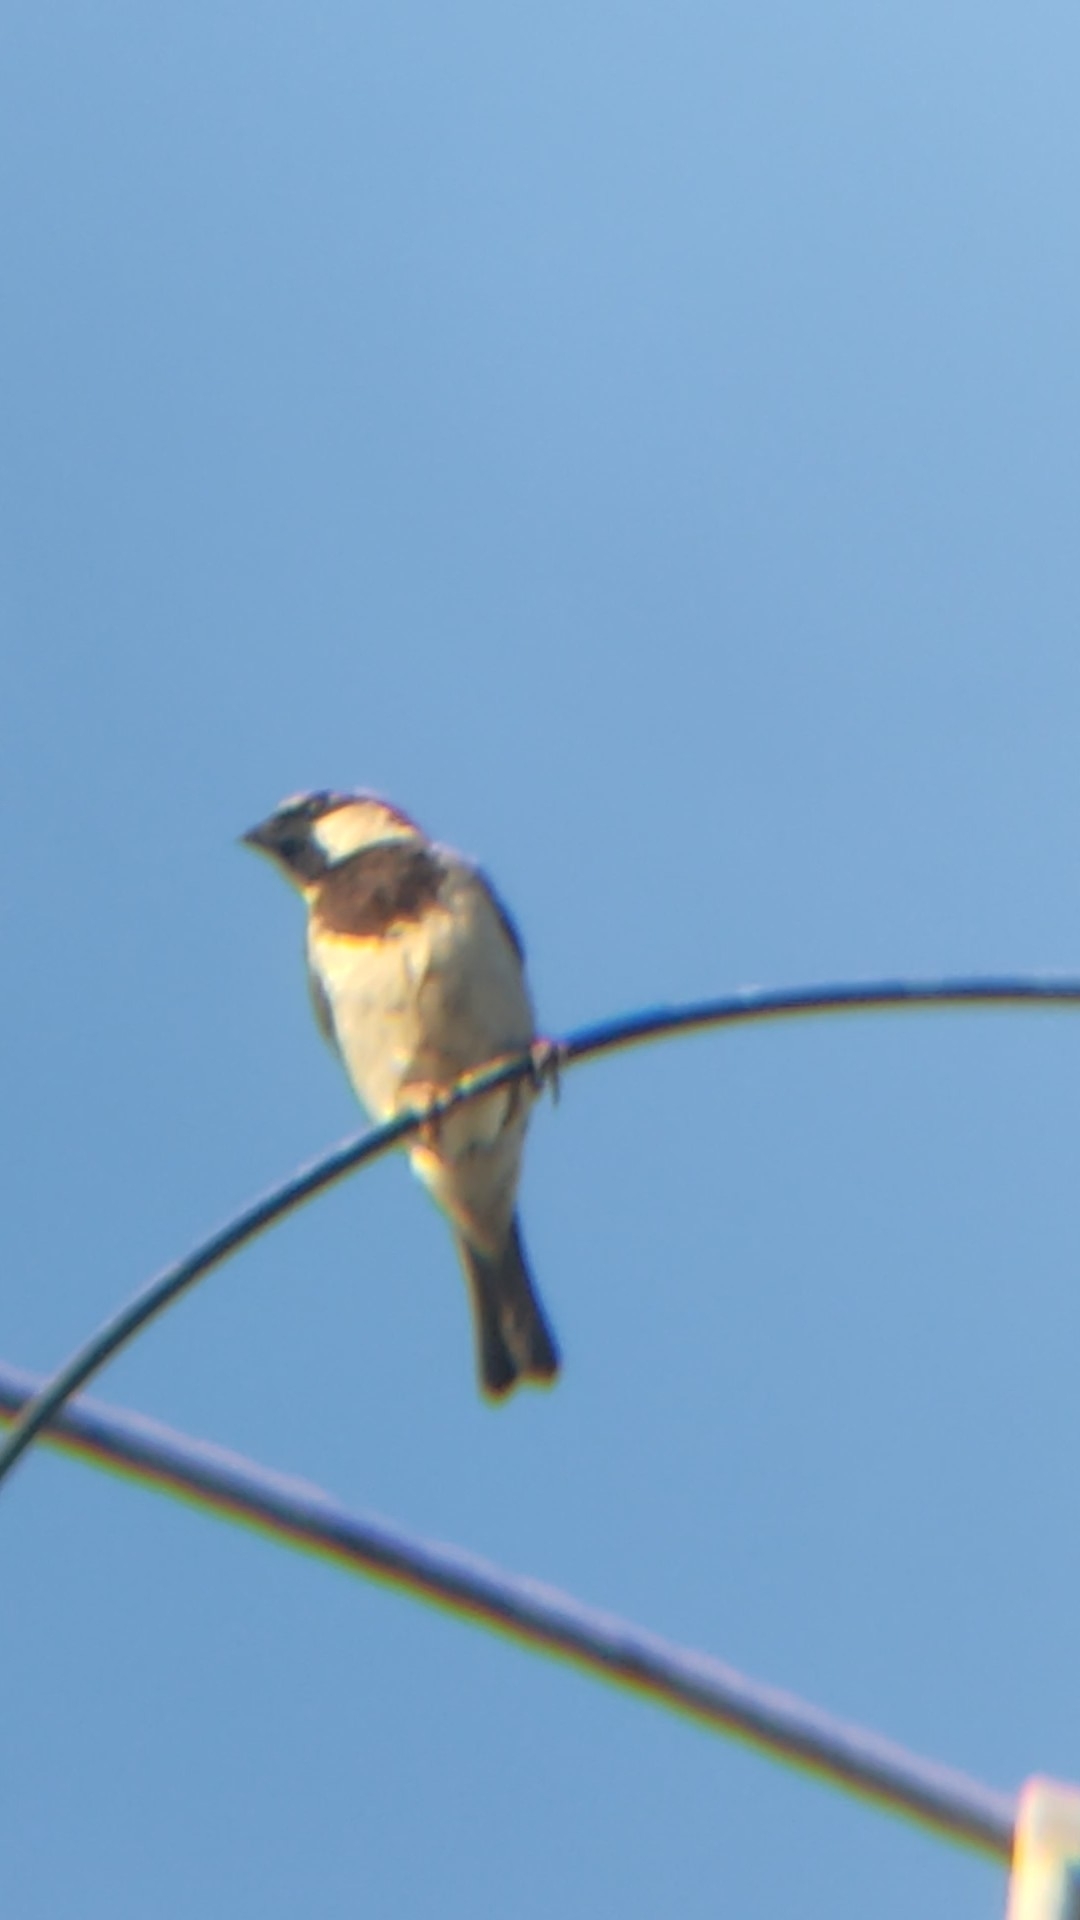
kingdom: Animalia
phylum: Chordata
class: Aves
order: Passeriformes
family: Passeridae
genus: Passer
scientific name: Passer domesticus
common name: House sparrow
